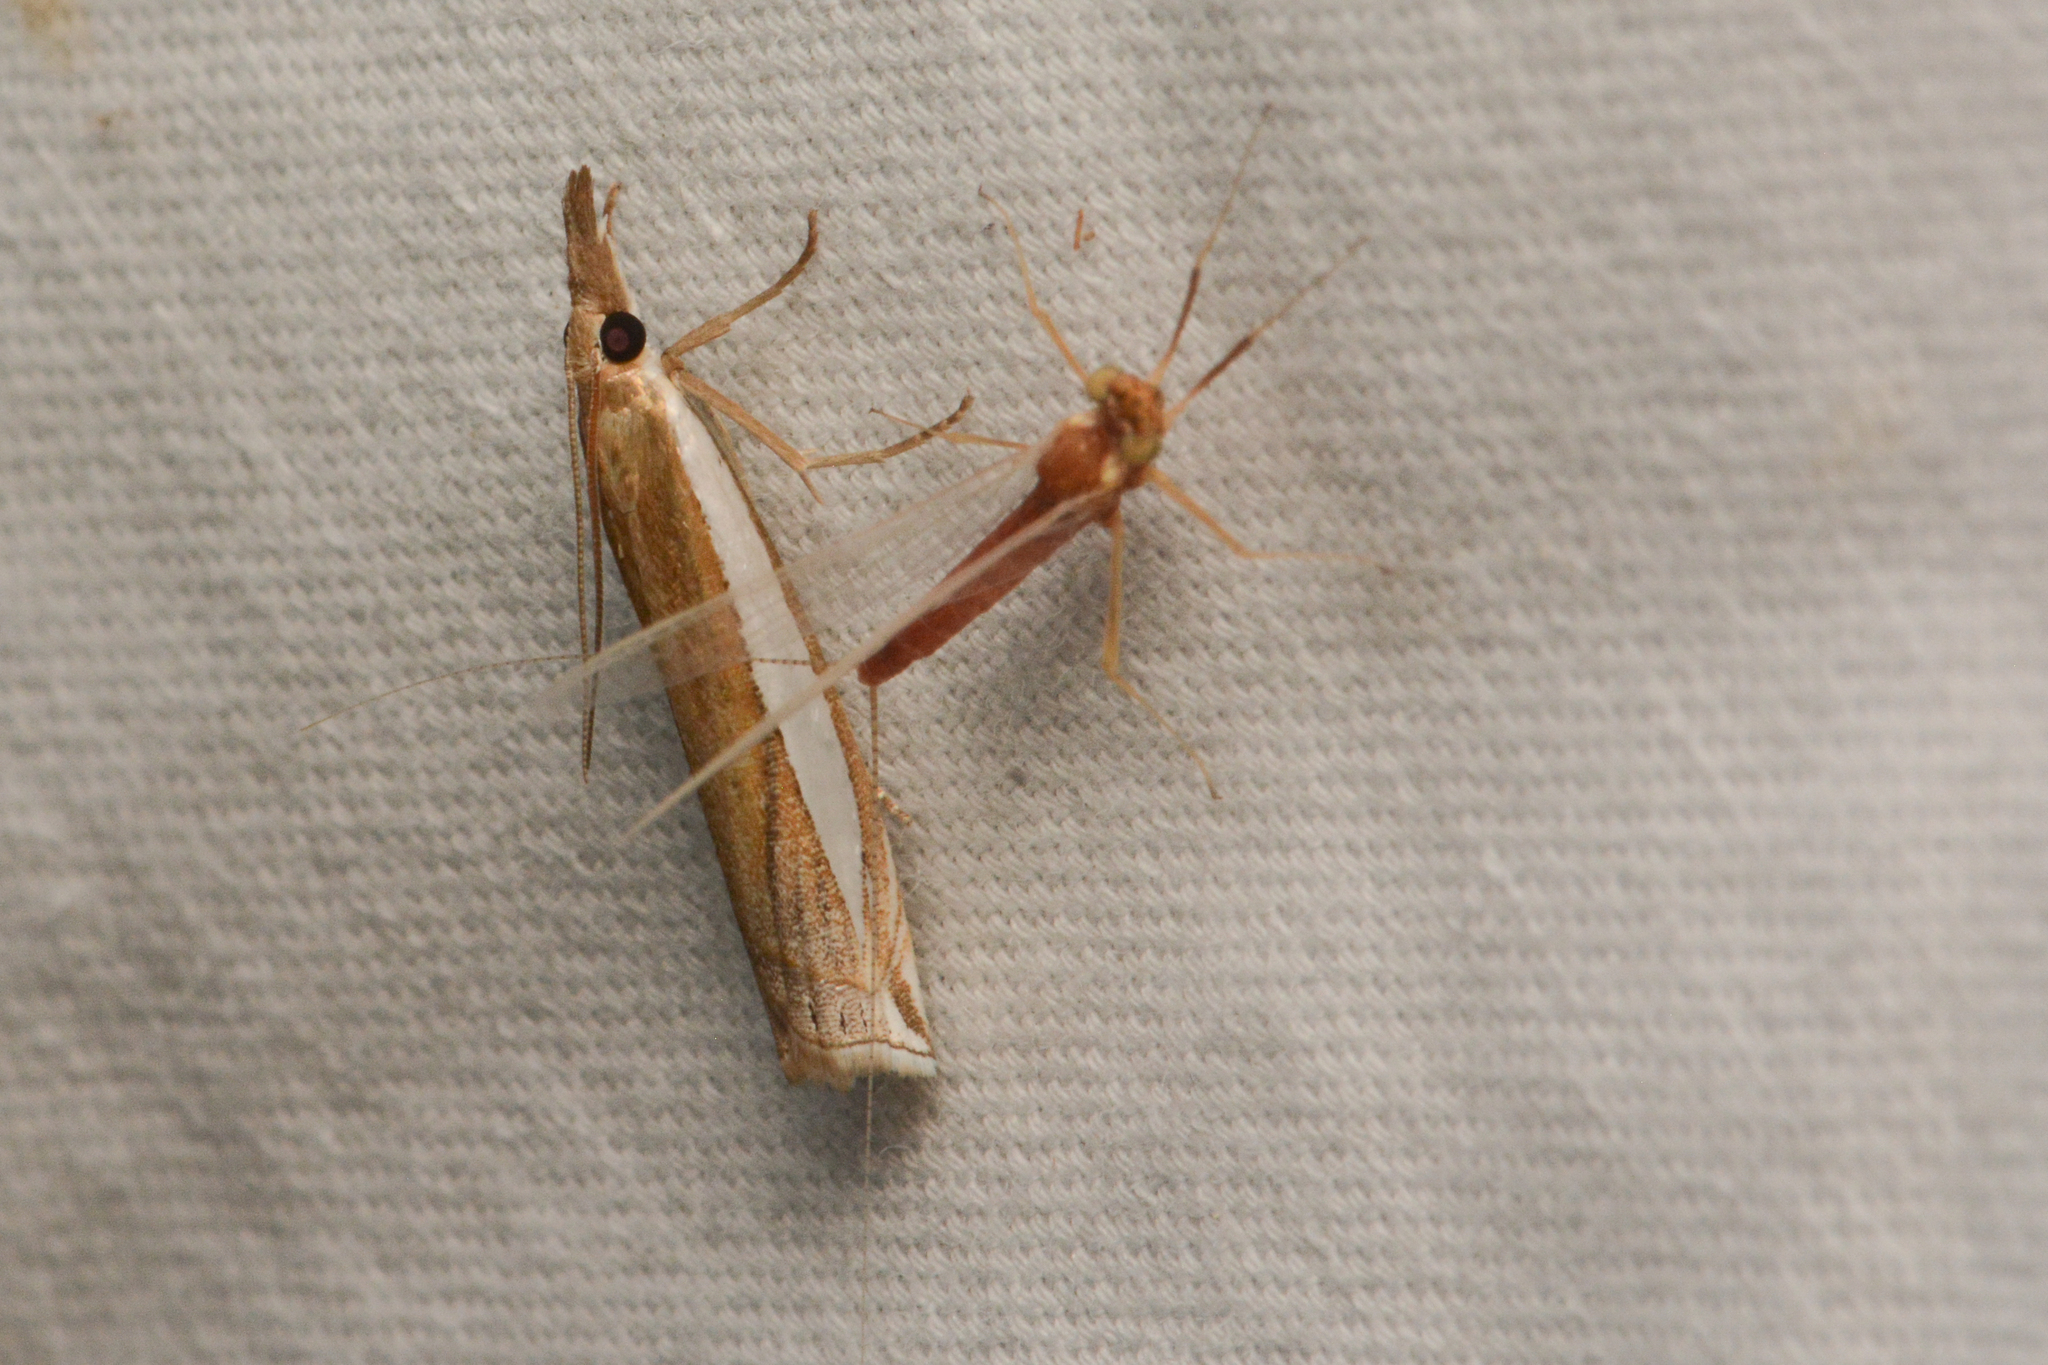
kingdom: Animalia
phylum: Arthropoda
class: Insecta
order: Lepidoptera
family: Crambidae
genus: Crambus
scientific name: Crambus leachellus
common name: Leach's grass-veneer
